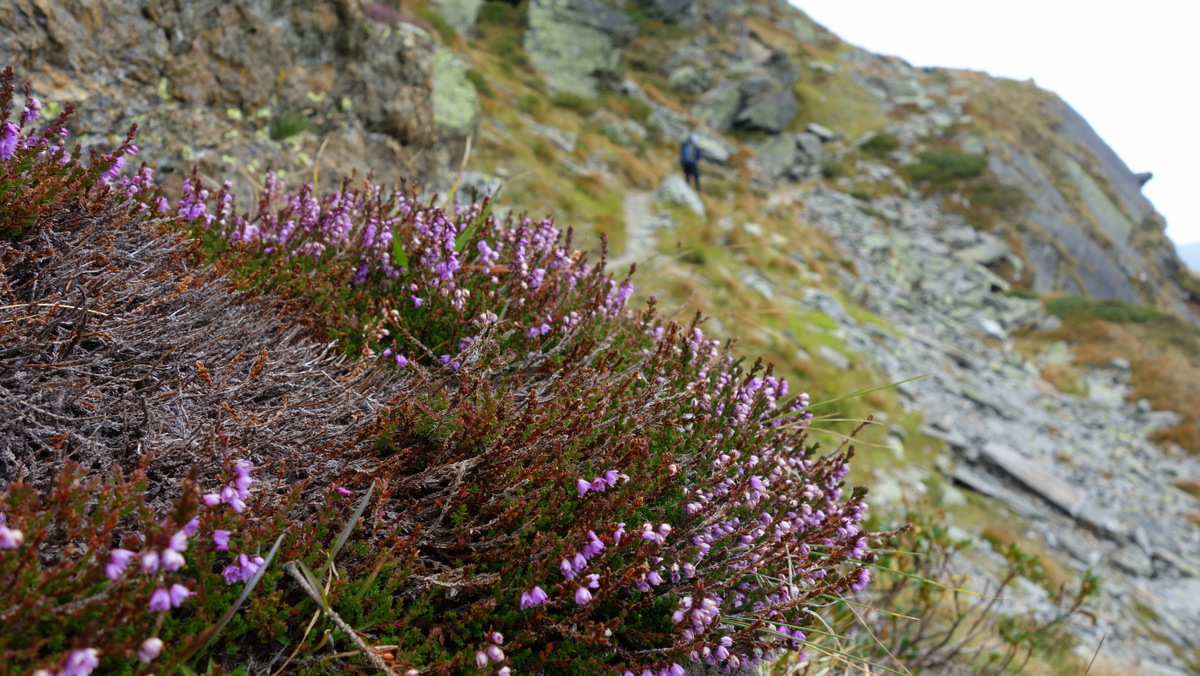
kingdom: Plantae
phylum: Tracheophyta
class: Magnoliopsida
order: Ericales
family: Ericaceae
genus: Calluna
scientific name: Calluna vulgaris
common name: Heather
